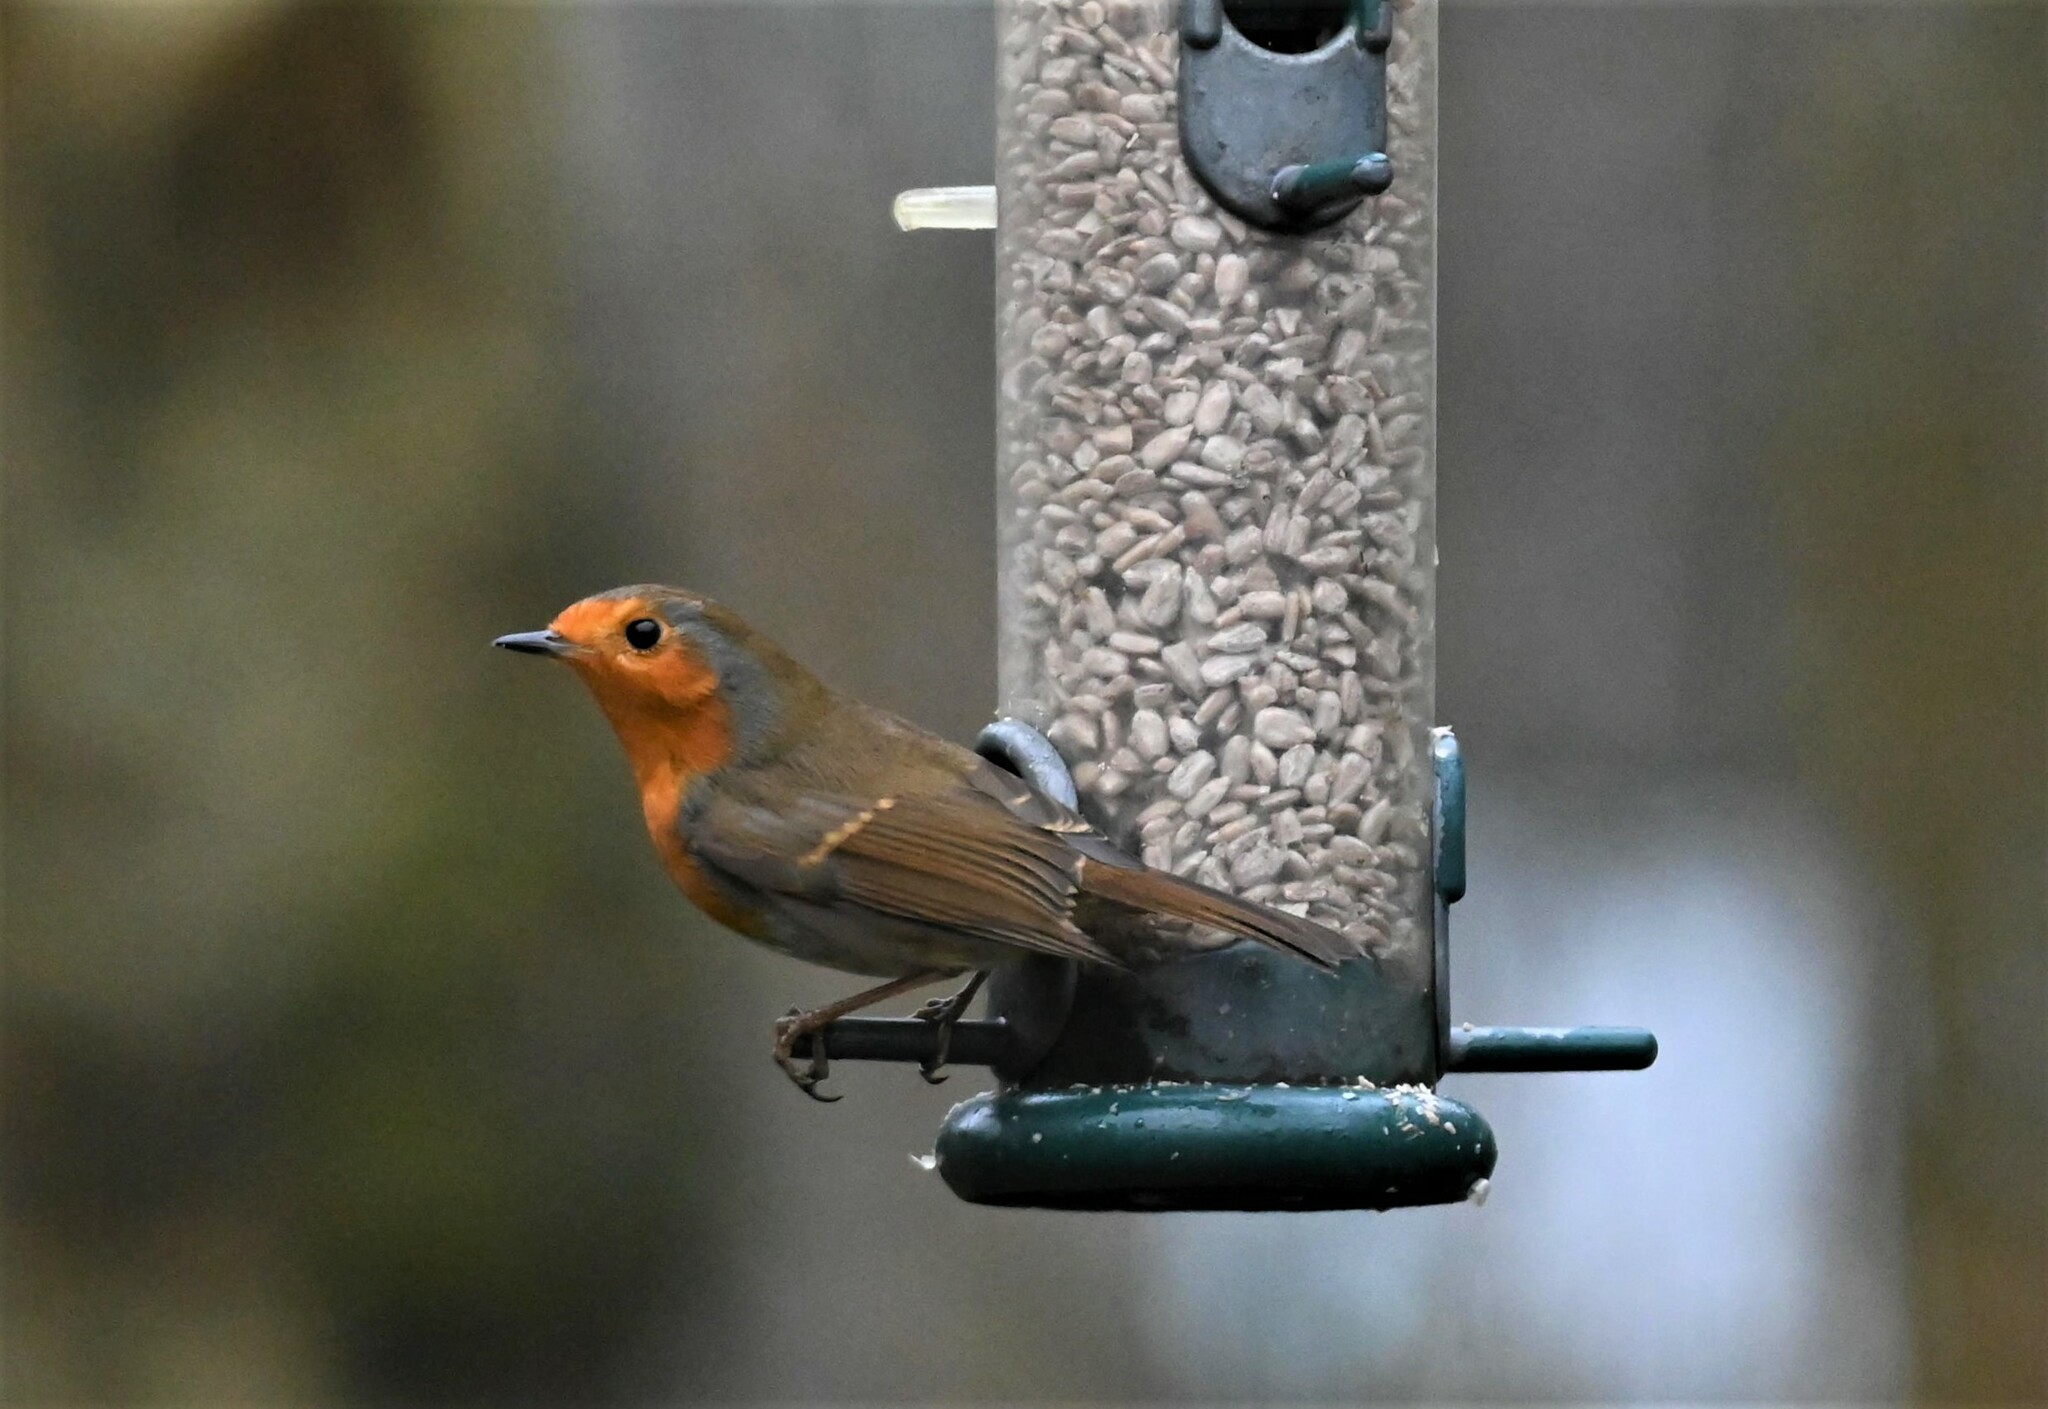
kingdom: Animalia
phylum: Chordata
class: Aves
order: Passeriformes
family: Muscicapidae
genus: Erithacus
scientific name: Erithacus rubecula
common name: European robin
